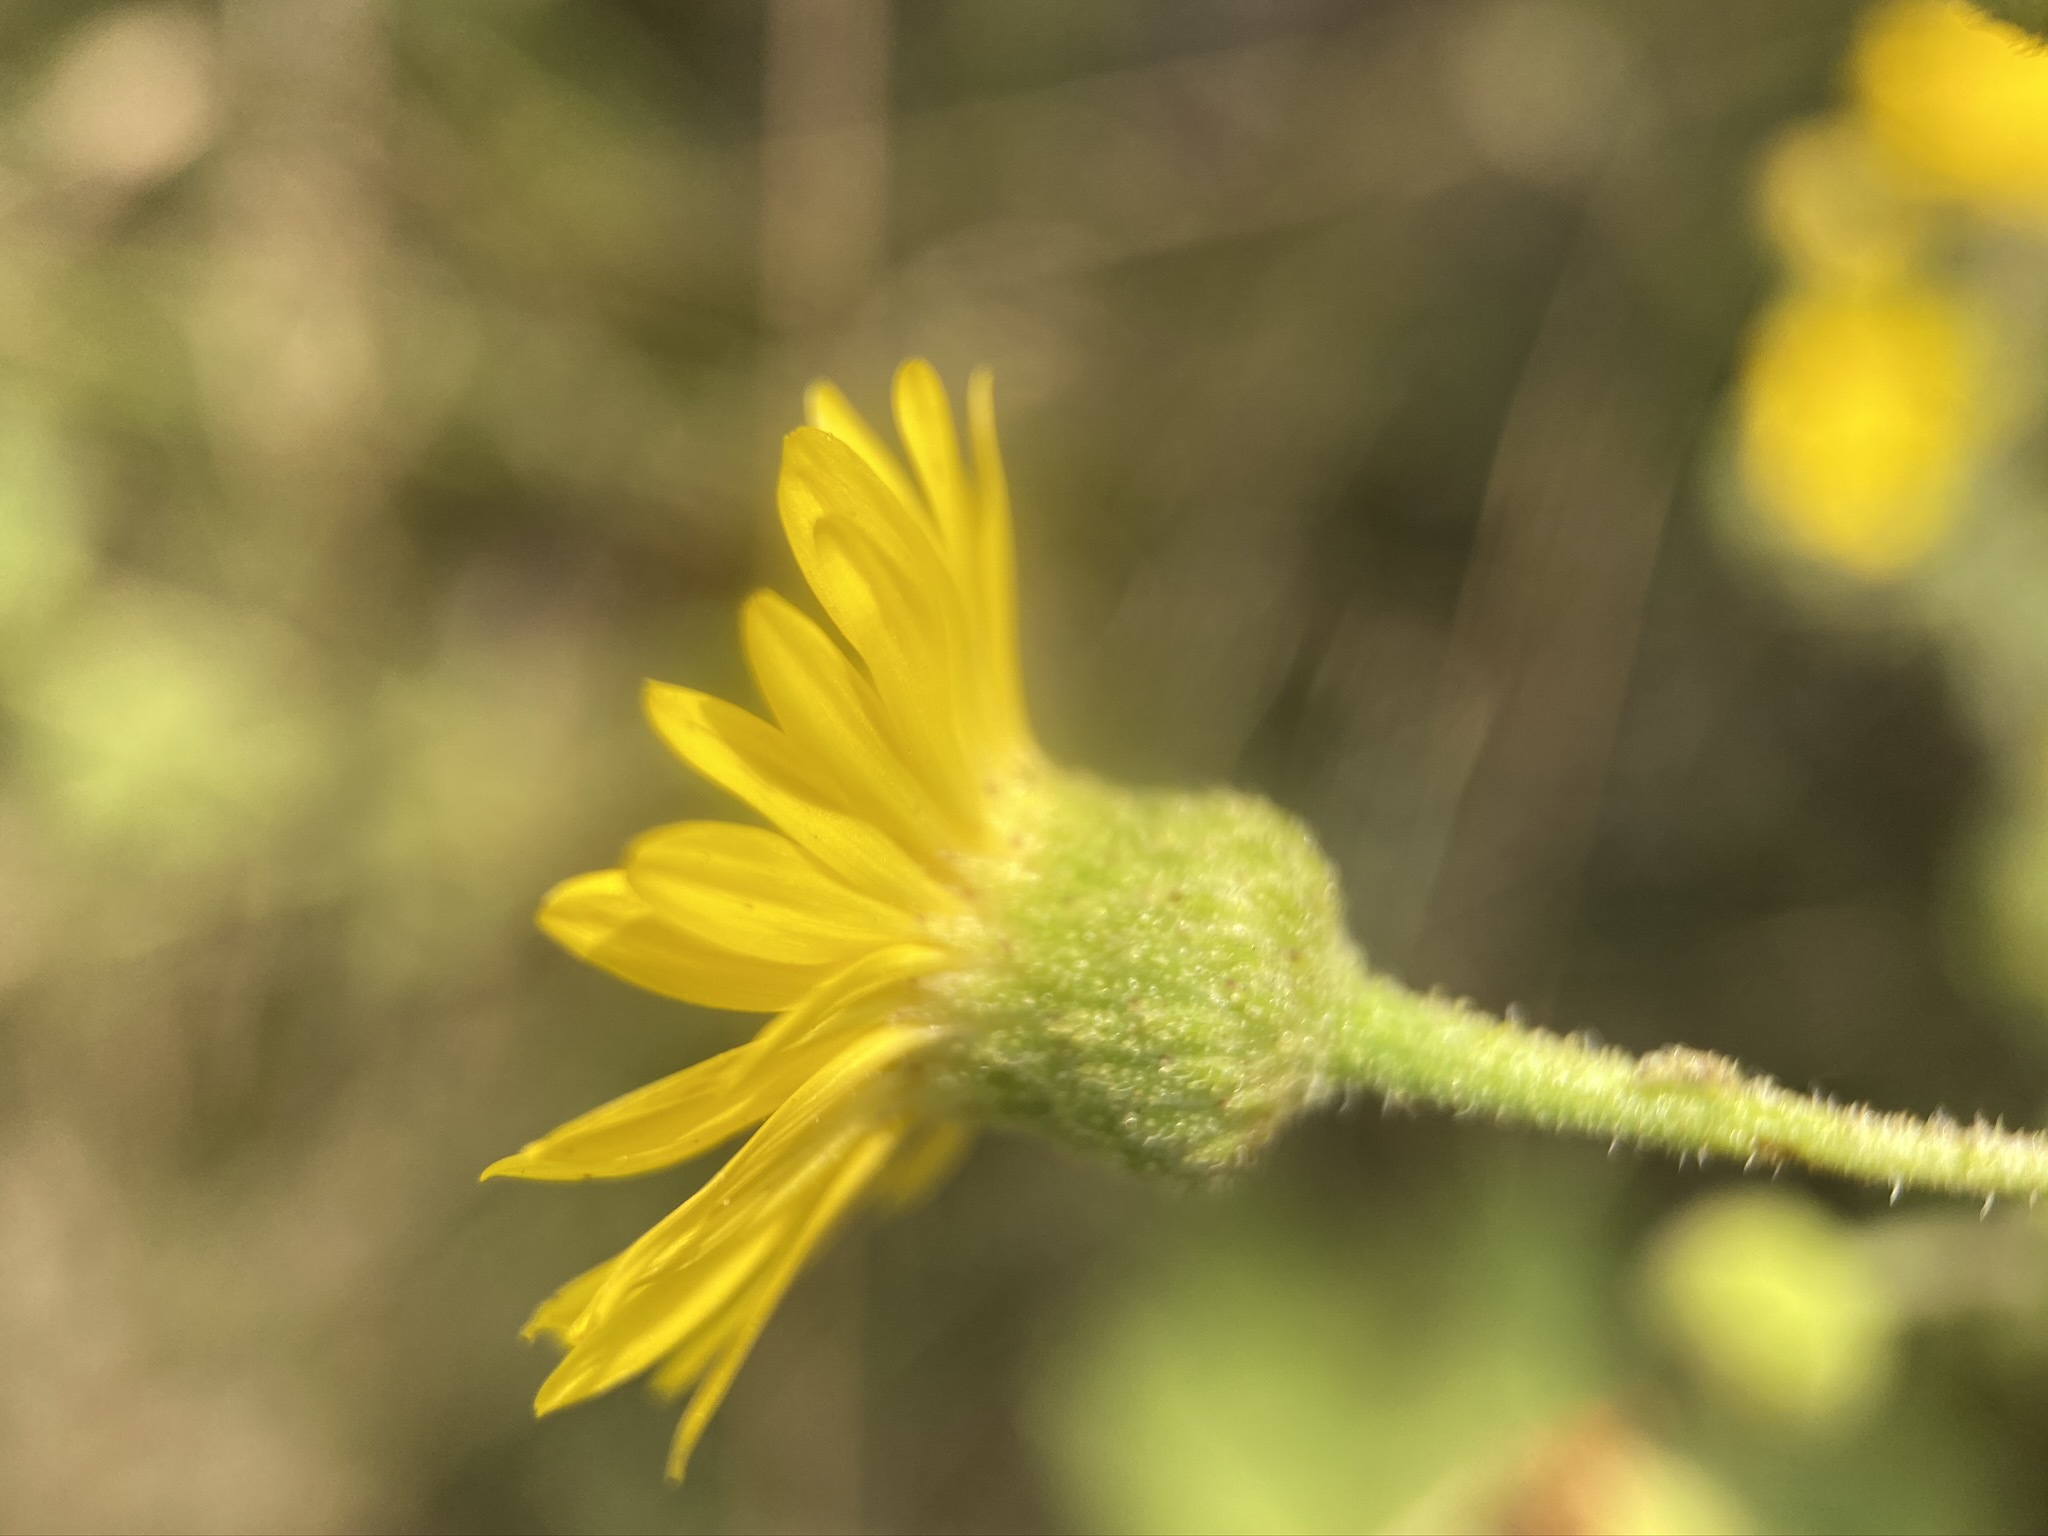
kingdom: Plantae
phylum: Tracheophyta
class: Magnoliopsida
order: Asterales
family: Asteraceae
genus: Heterotheca
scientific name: Heterotheca subaxillaris
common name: Camphorweed
